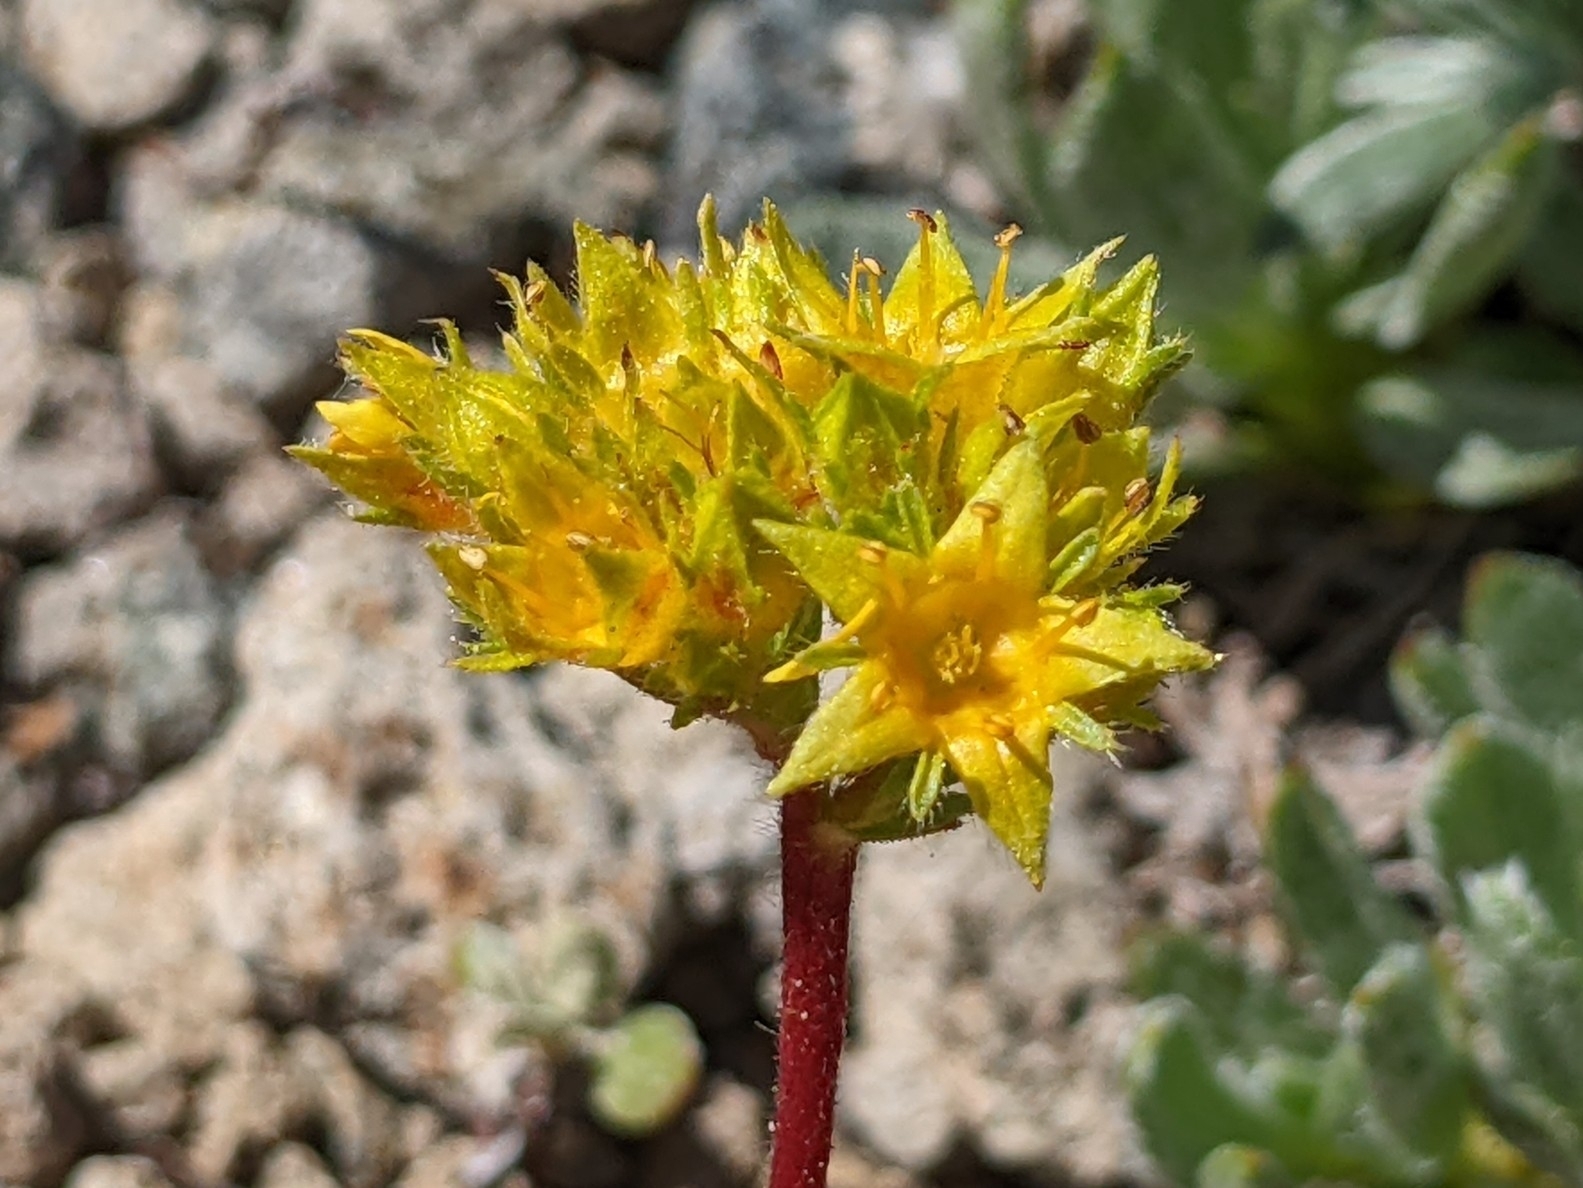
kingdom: Plantae
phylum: Tracheophyta
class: Magnoliopsida
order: Rosales
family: Rosaceae
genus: Potentilla
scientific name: Potentilla gordonii
